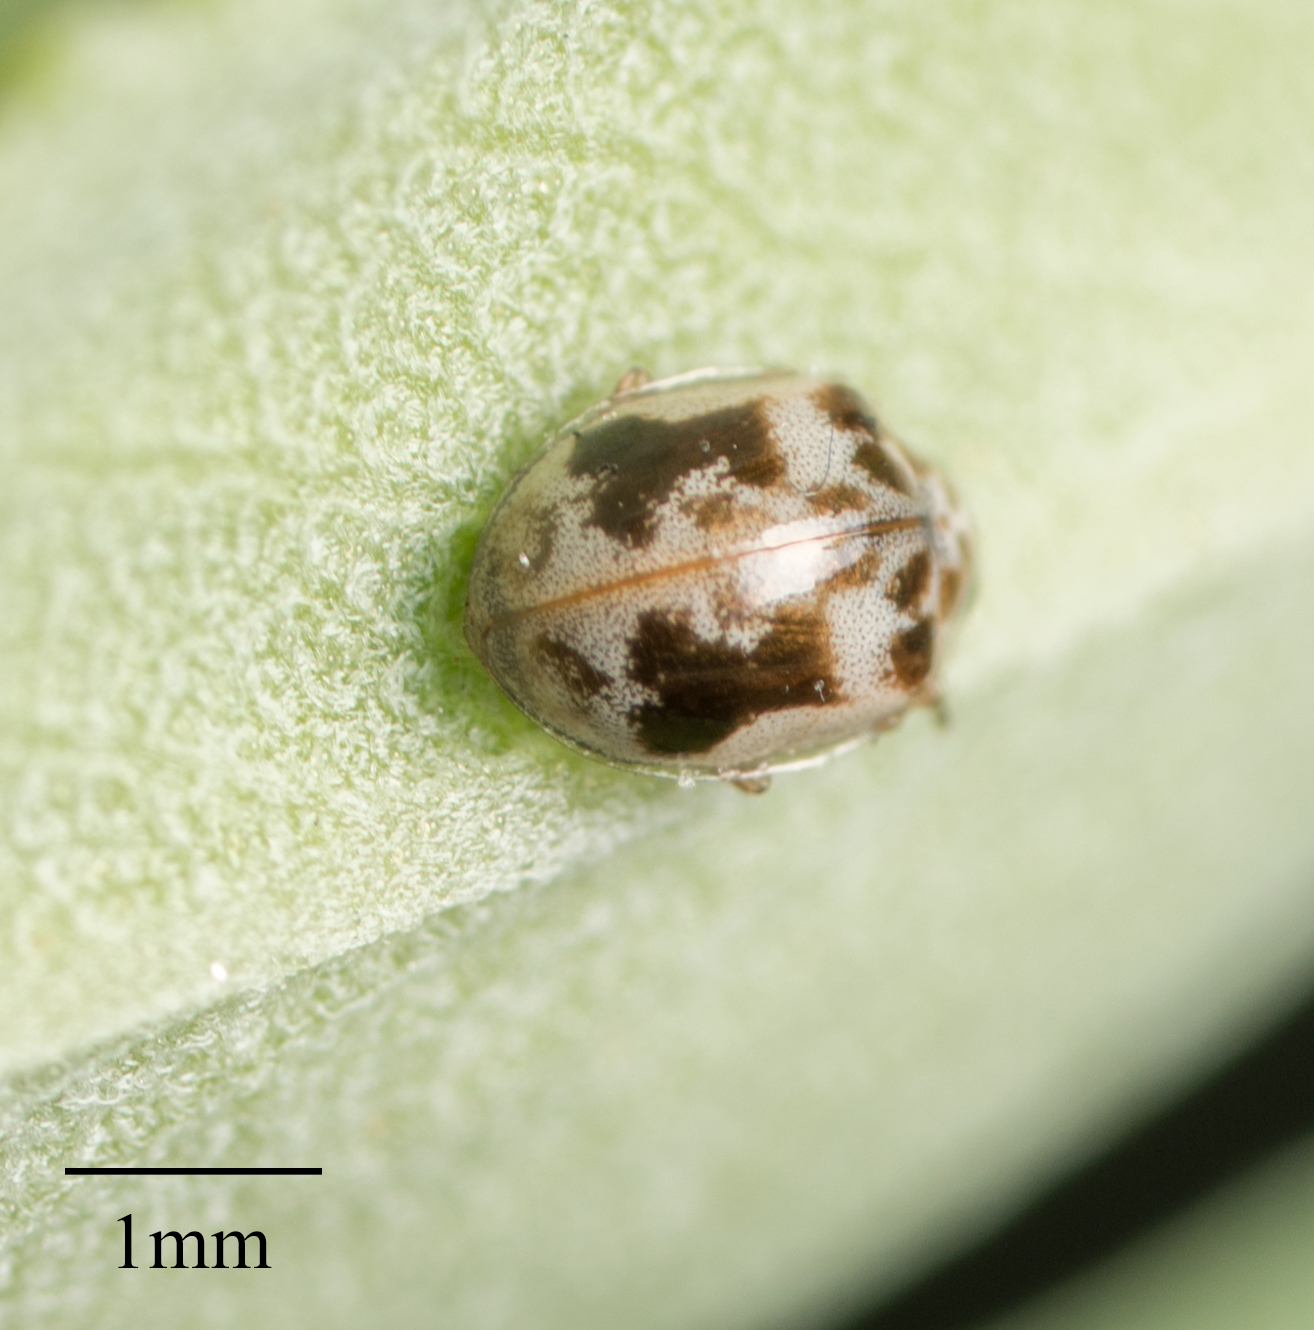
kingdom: Animalia
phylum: Arthropoda
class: Insecta
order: Coleoptera
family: Coccinellidae
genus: Psyllobora
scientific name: Psyllobora renifer
